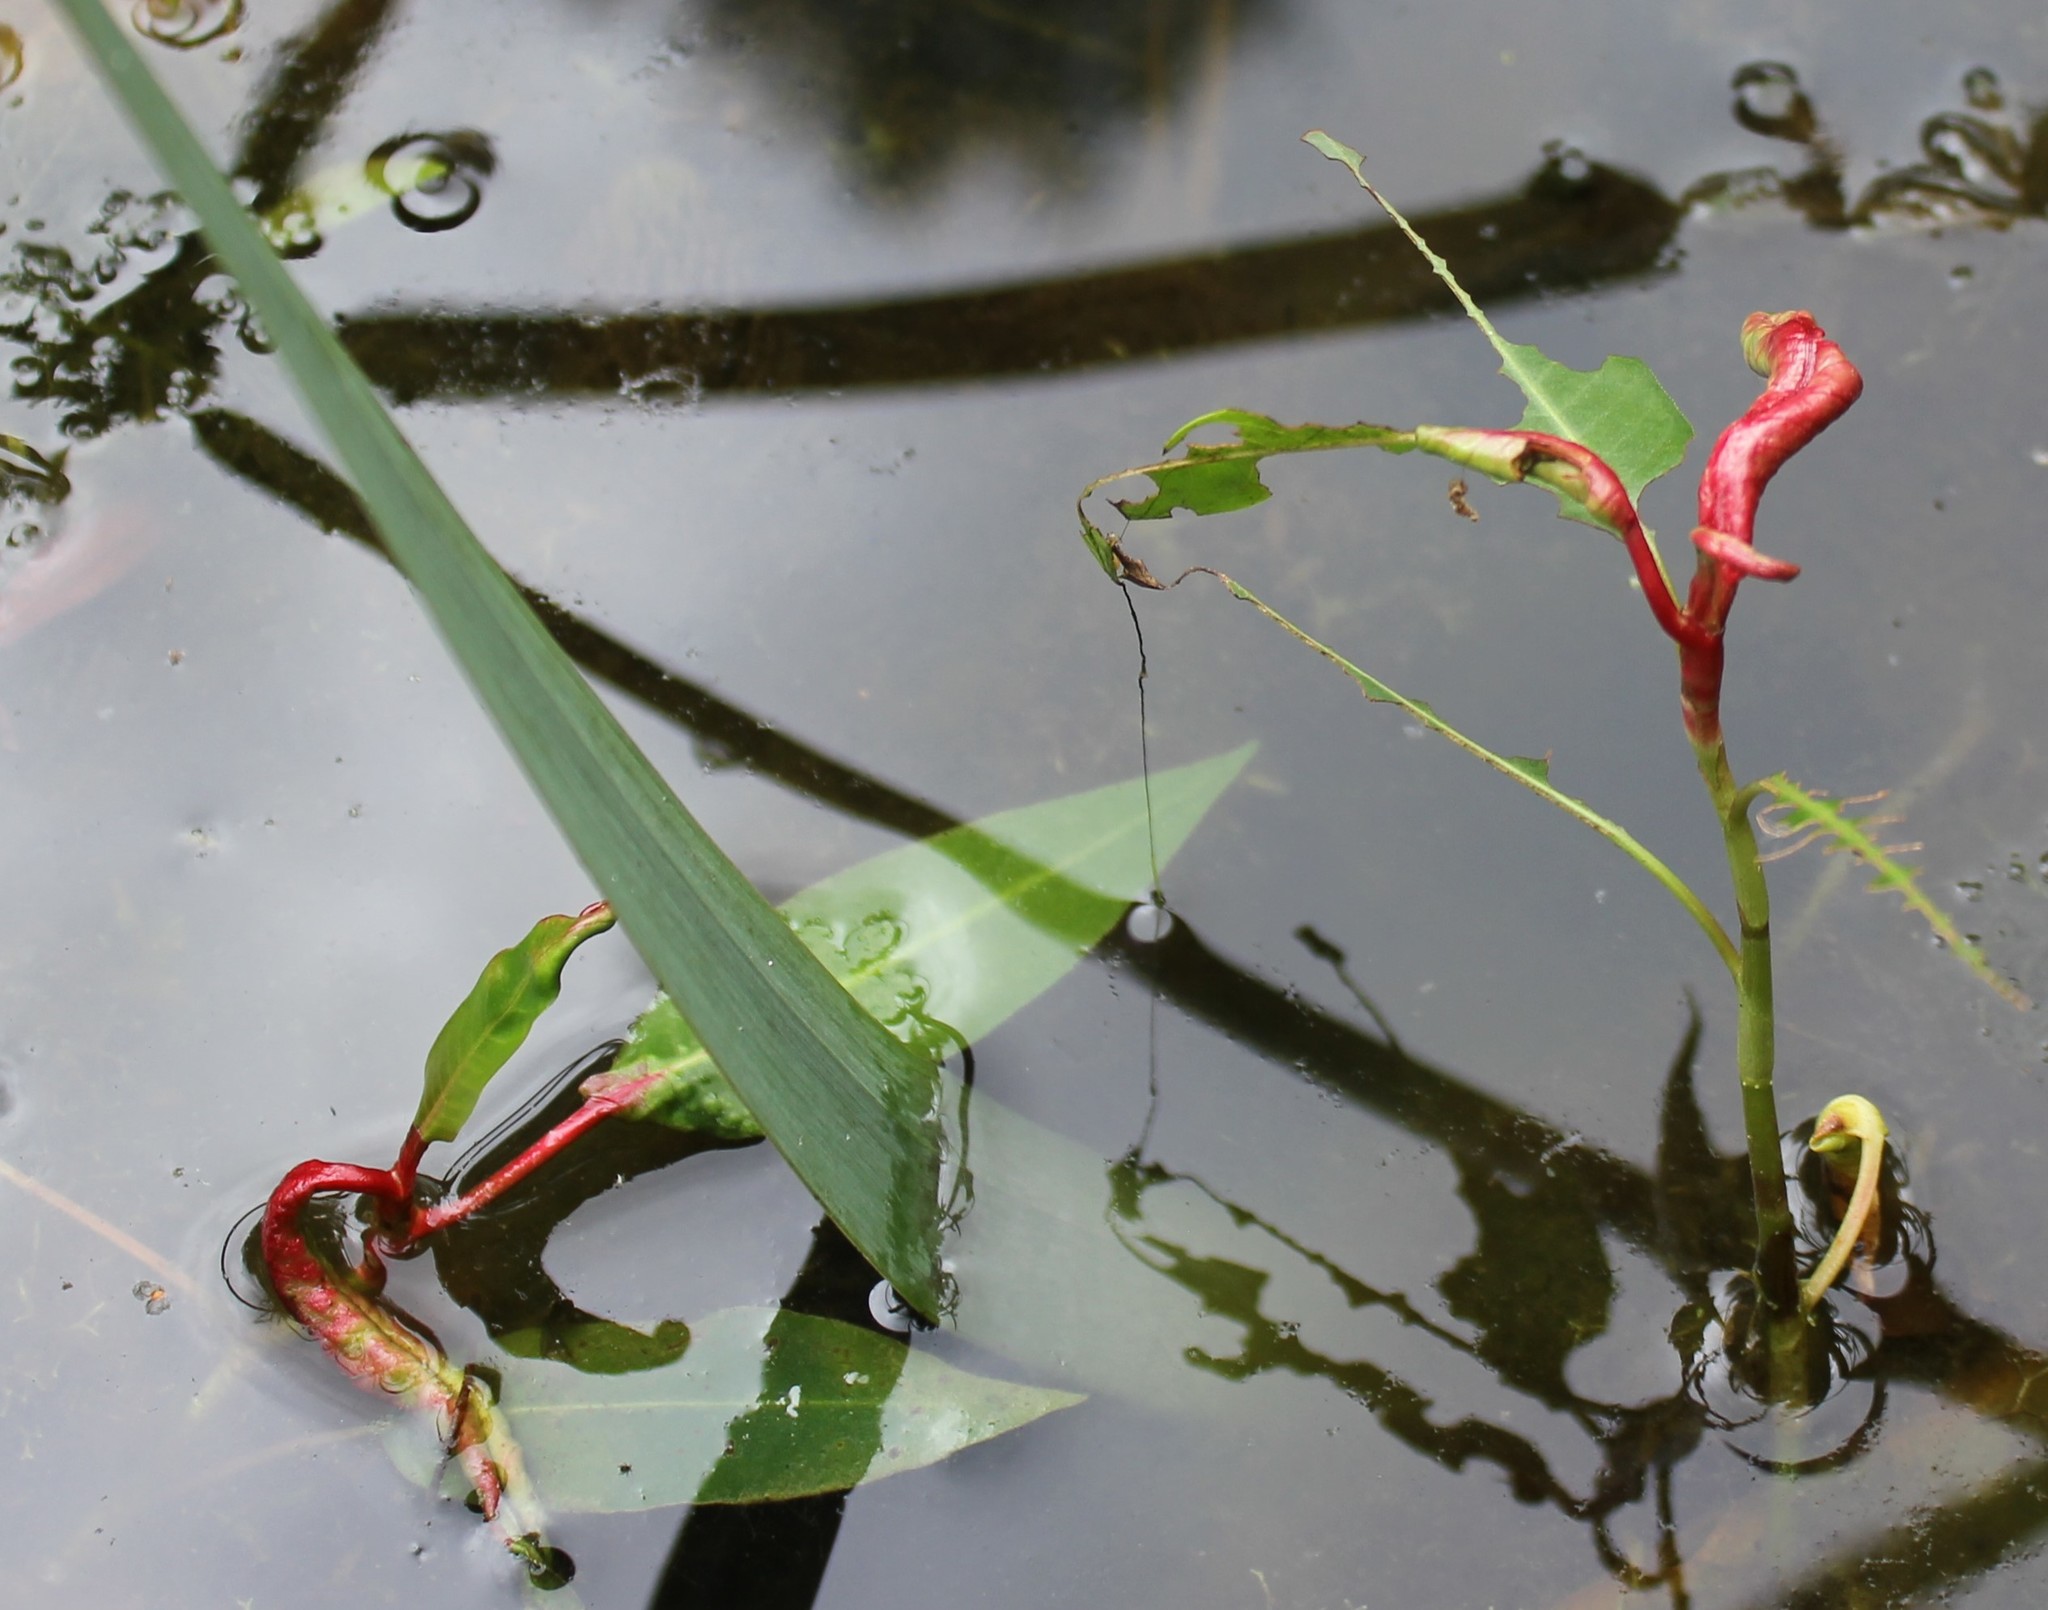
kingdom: Plantae
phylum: Tracheophyta
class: Magnoliopsida
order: Caryophyllales
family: Polygonaceae
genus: Persicaria
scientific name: Persicaria amphibia
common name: Amphibious bistort
